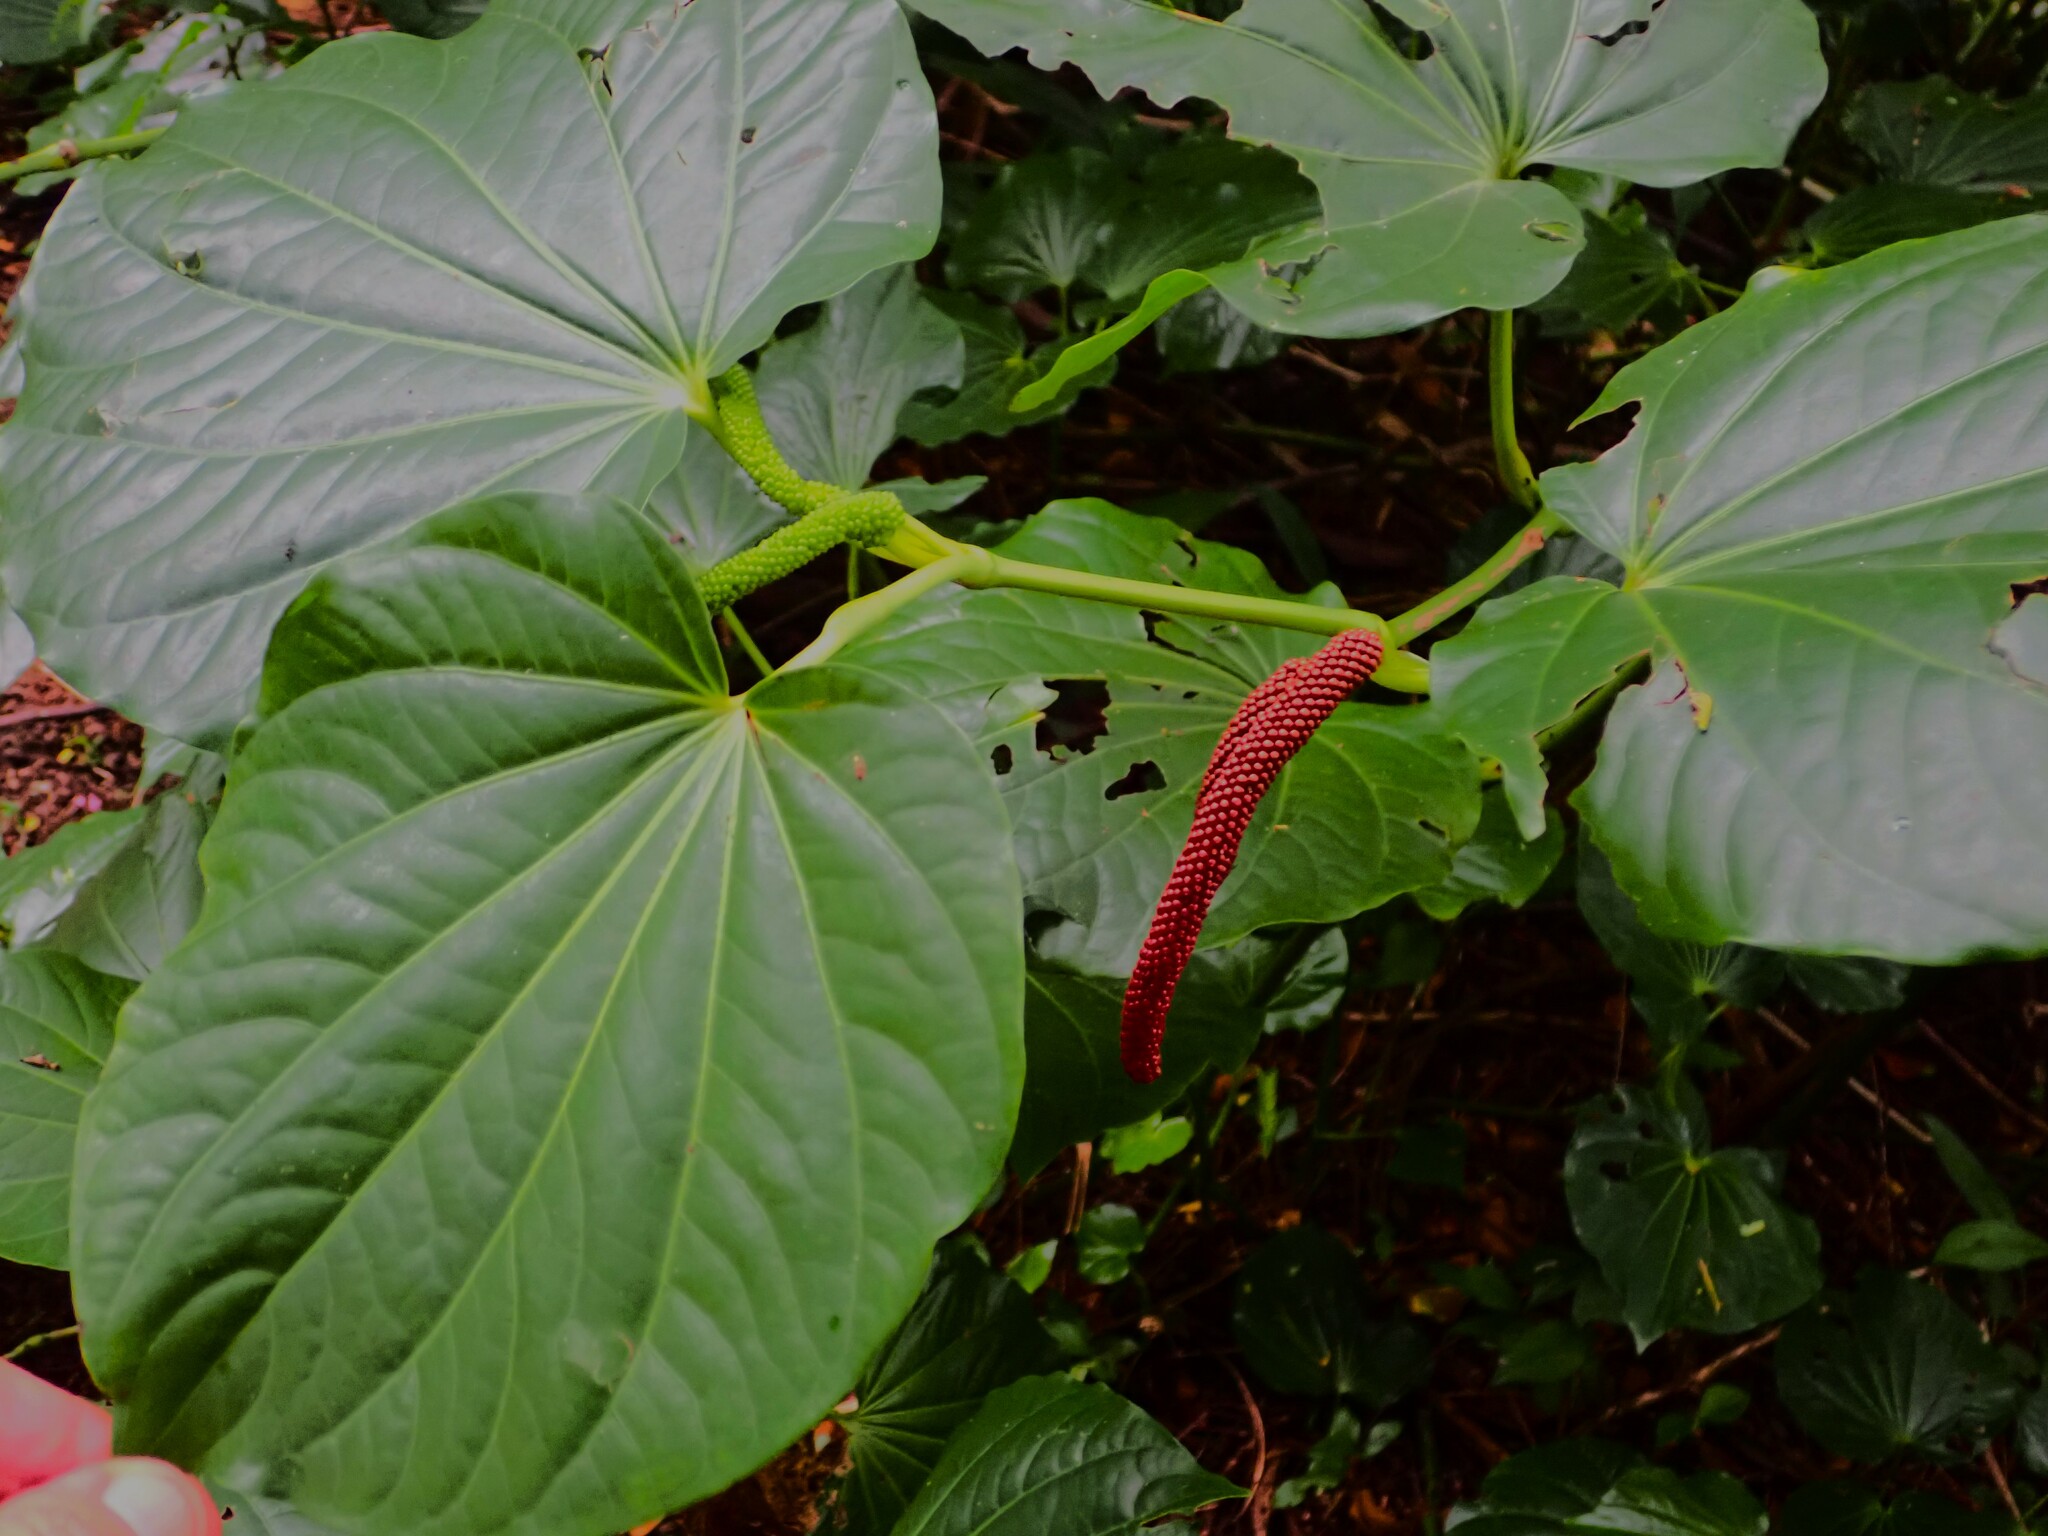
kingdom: Plantae
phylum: Tracheophyta
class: Magnoliopsida
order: Piperales
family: Piperaceae
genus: Piper
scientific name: Piper latifolium
